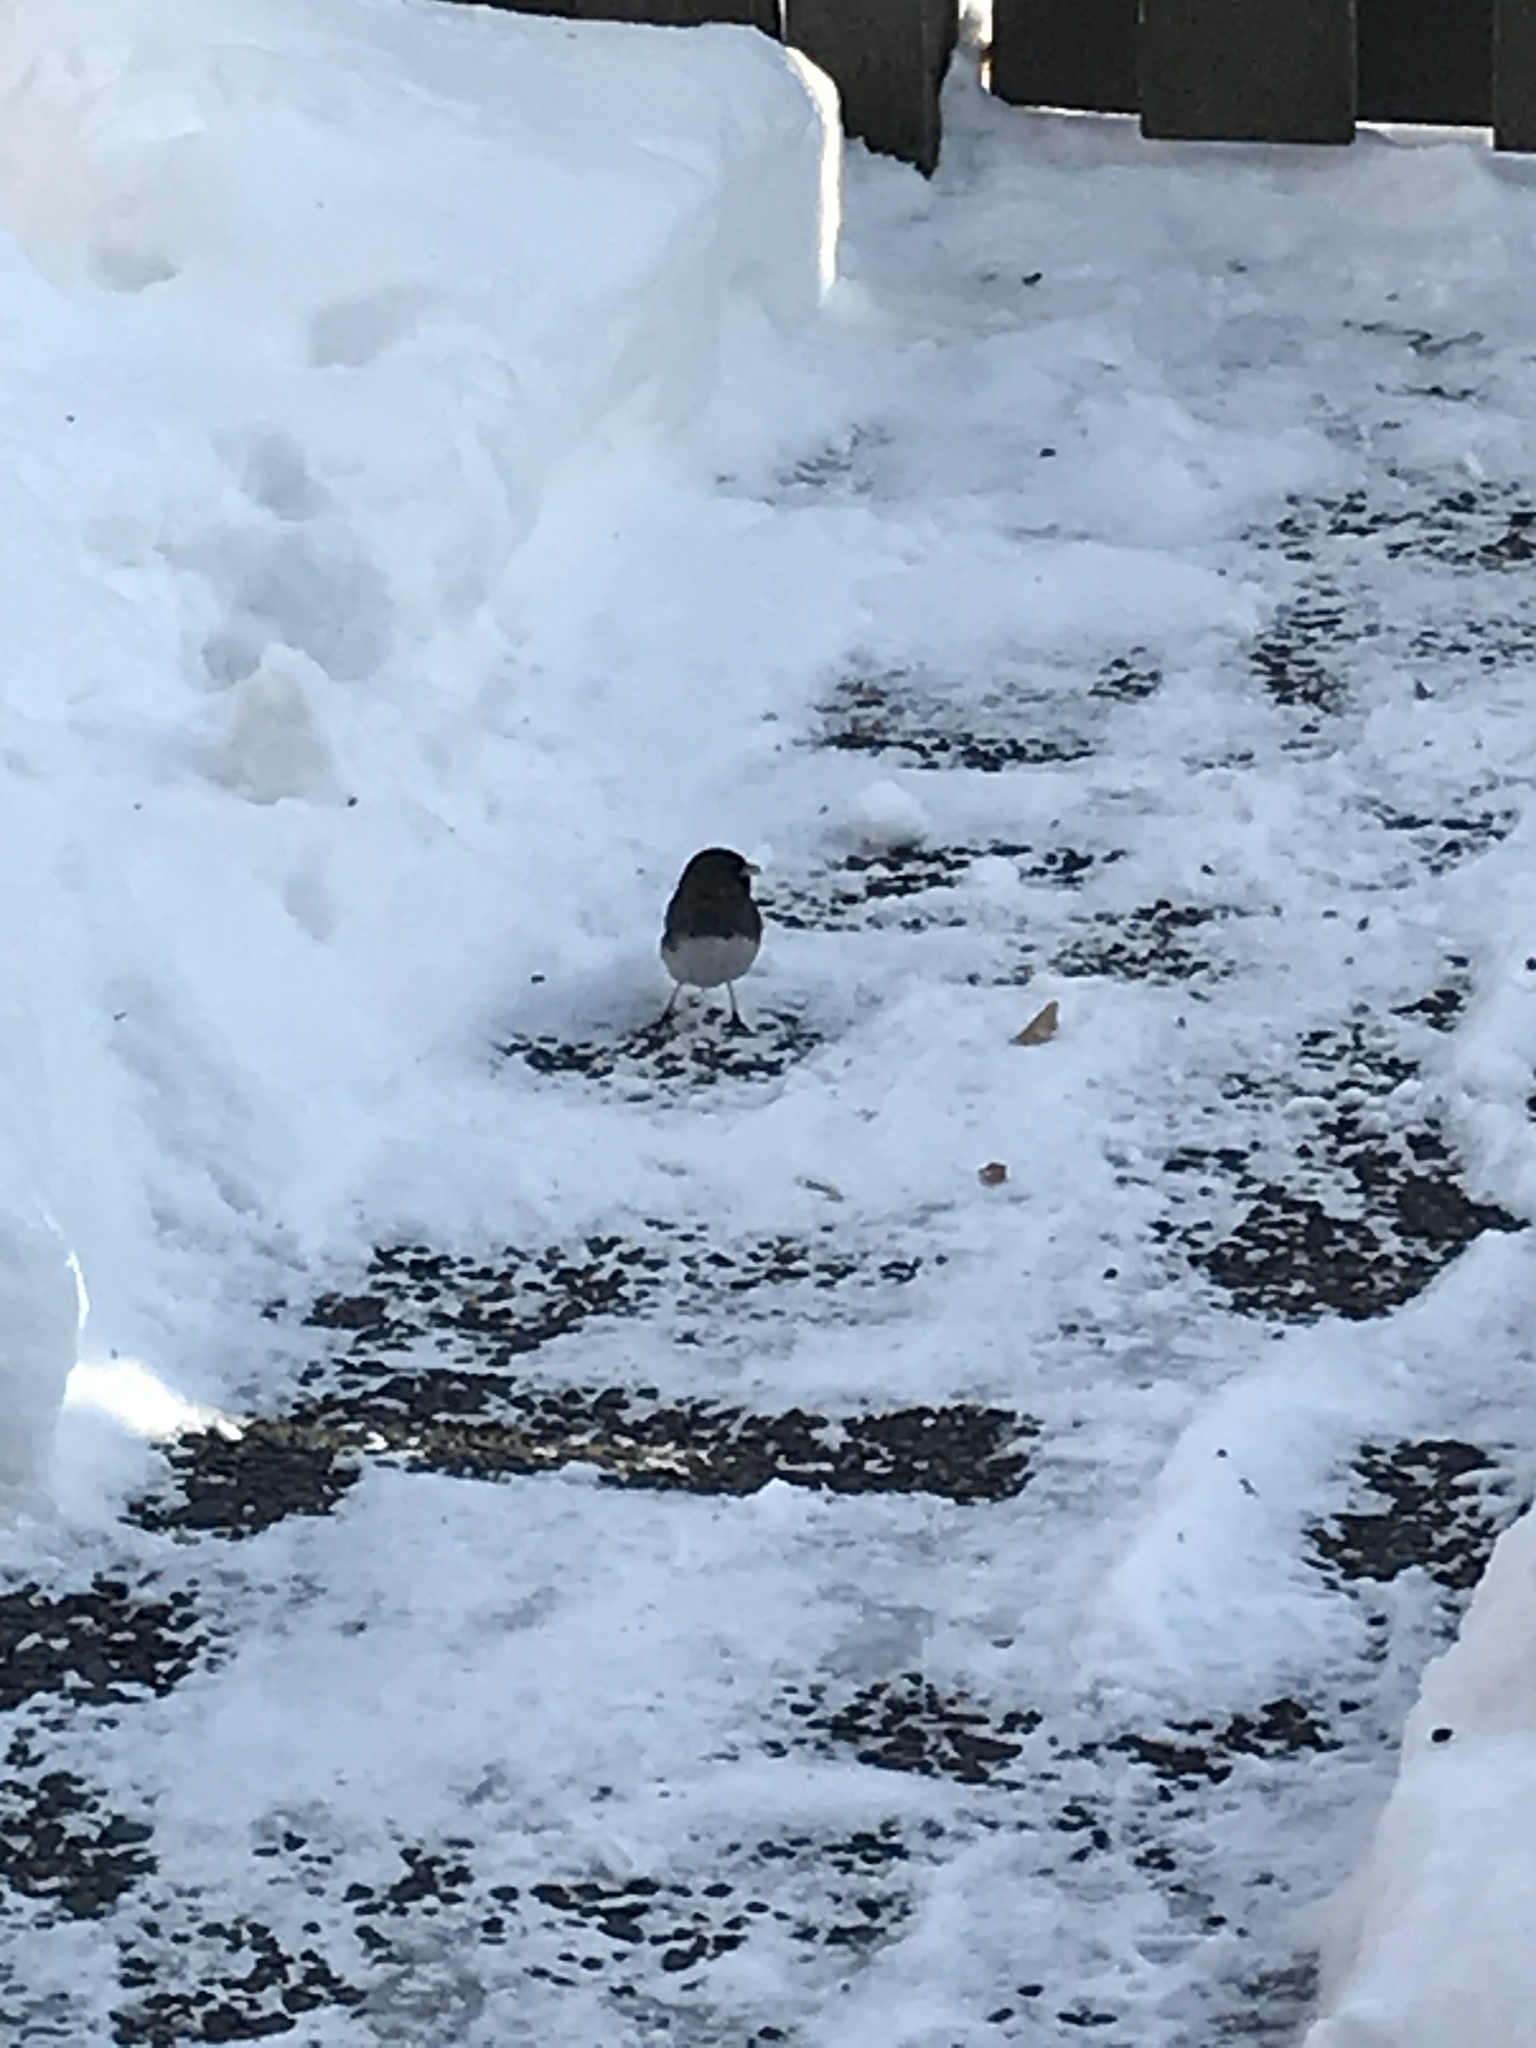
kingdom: Animalia
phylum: Chordata
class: Aves
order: Passeriformes
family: Passerellidae
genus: Junco
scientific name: Junco hyemalis
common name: Dark-eyed junco
